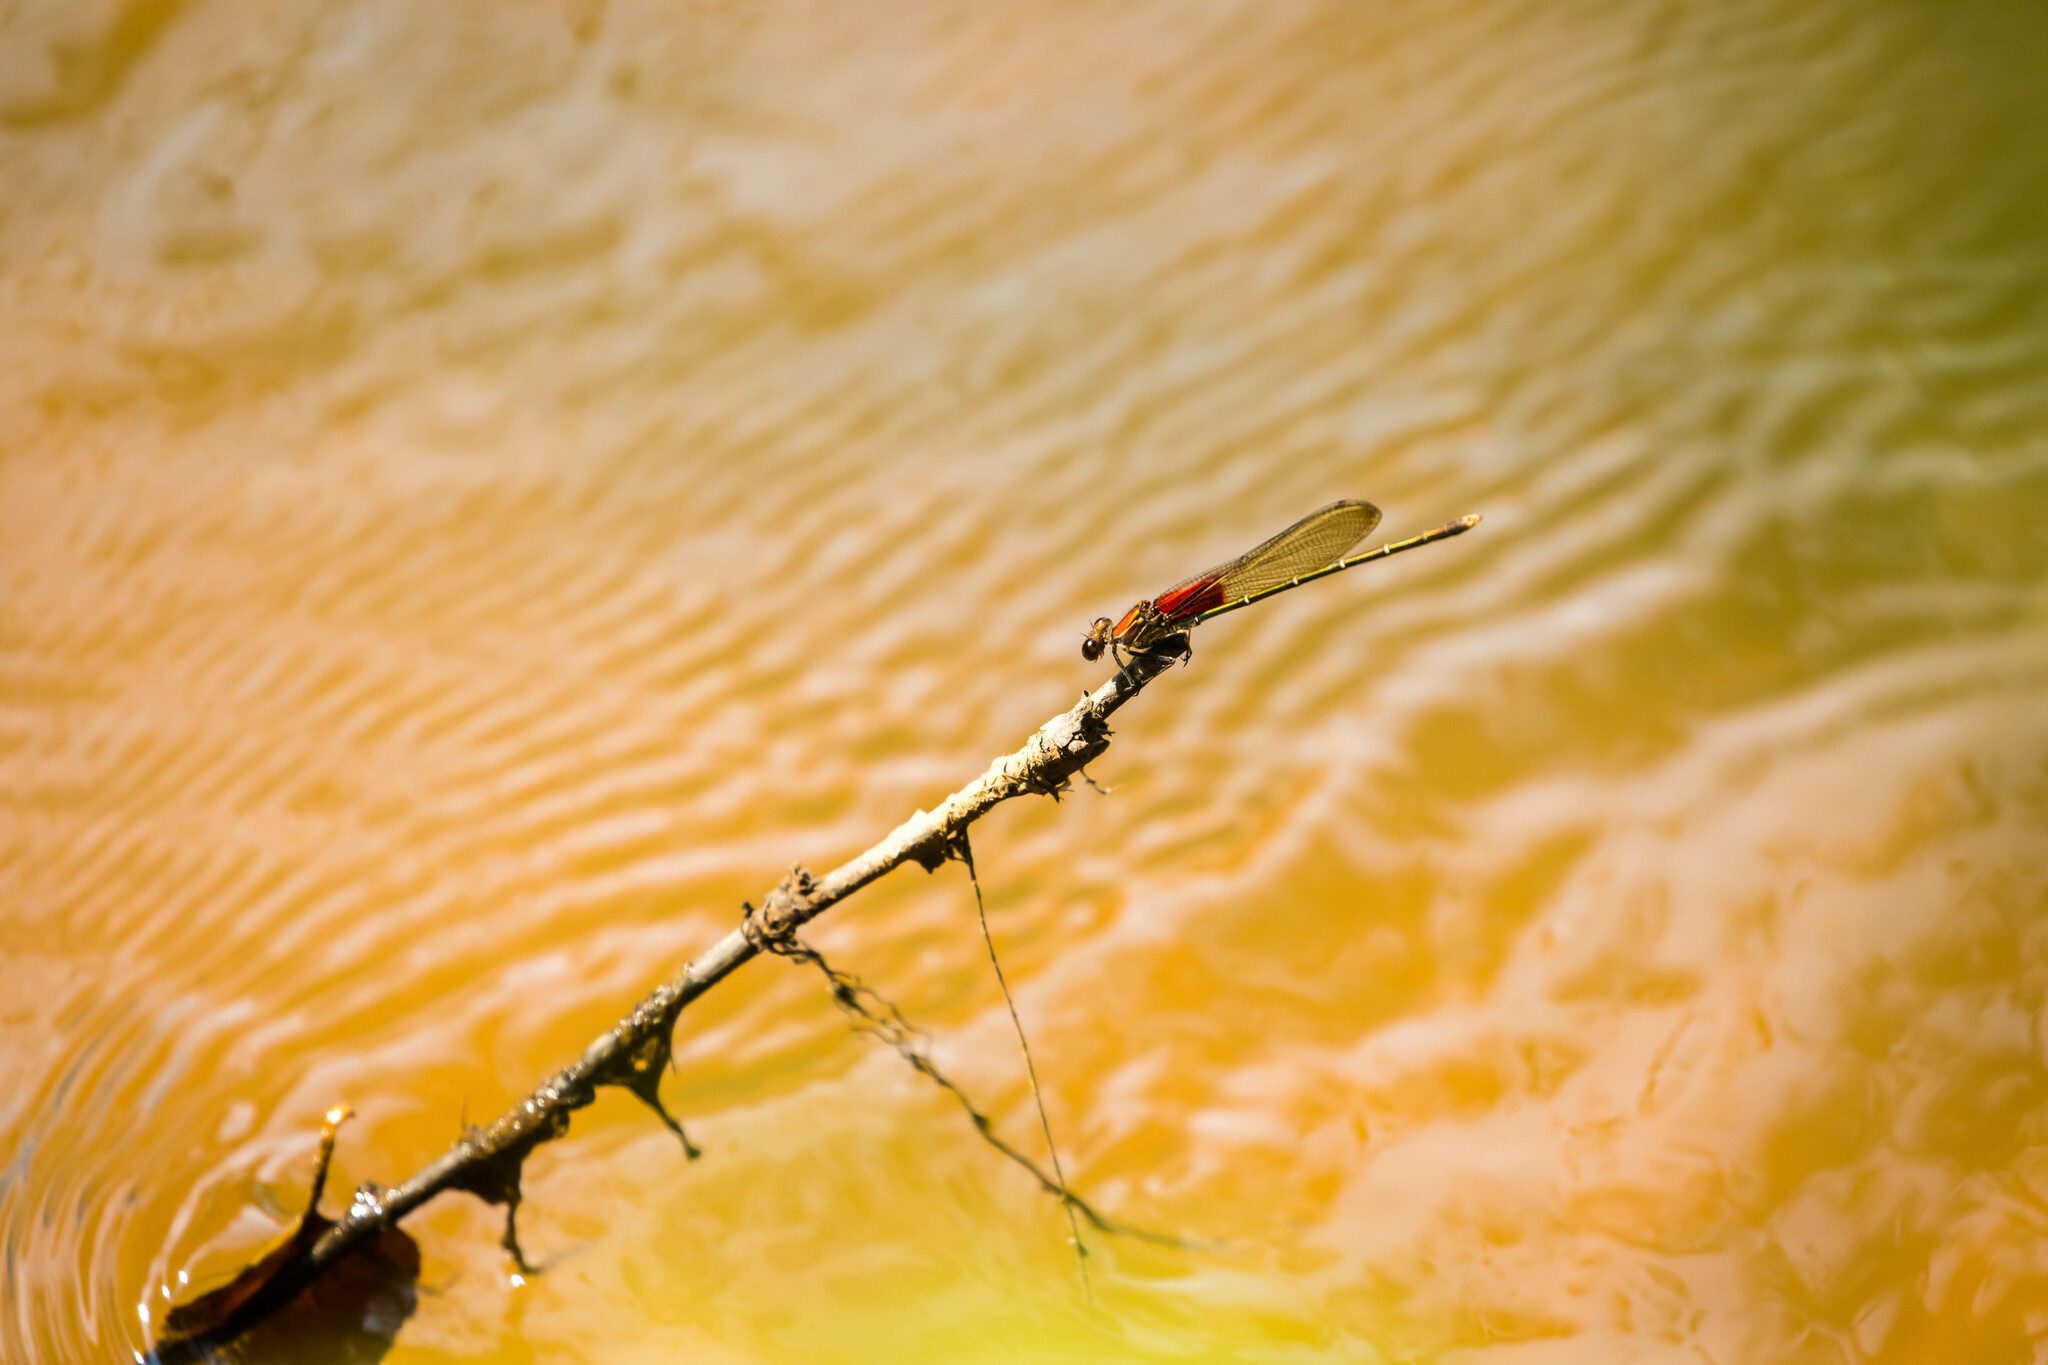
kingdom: Animalia
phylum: Arthropoda
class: Insecta
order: Odonata
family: Calopterygidae
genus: Hetaerina
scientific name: Hetaerina americana
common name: American rubyspot
